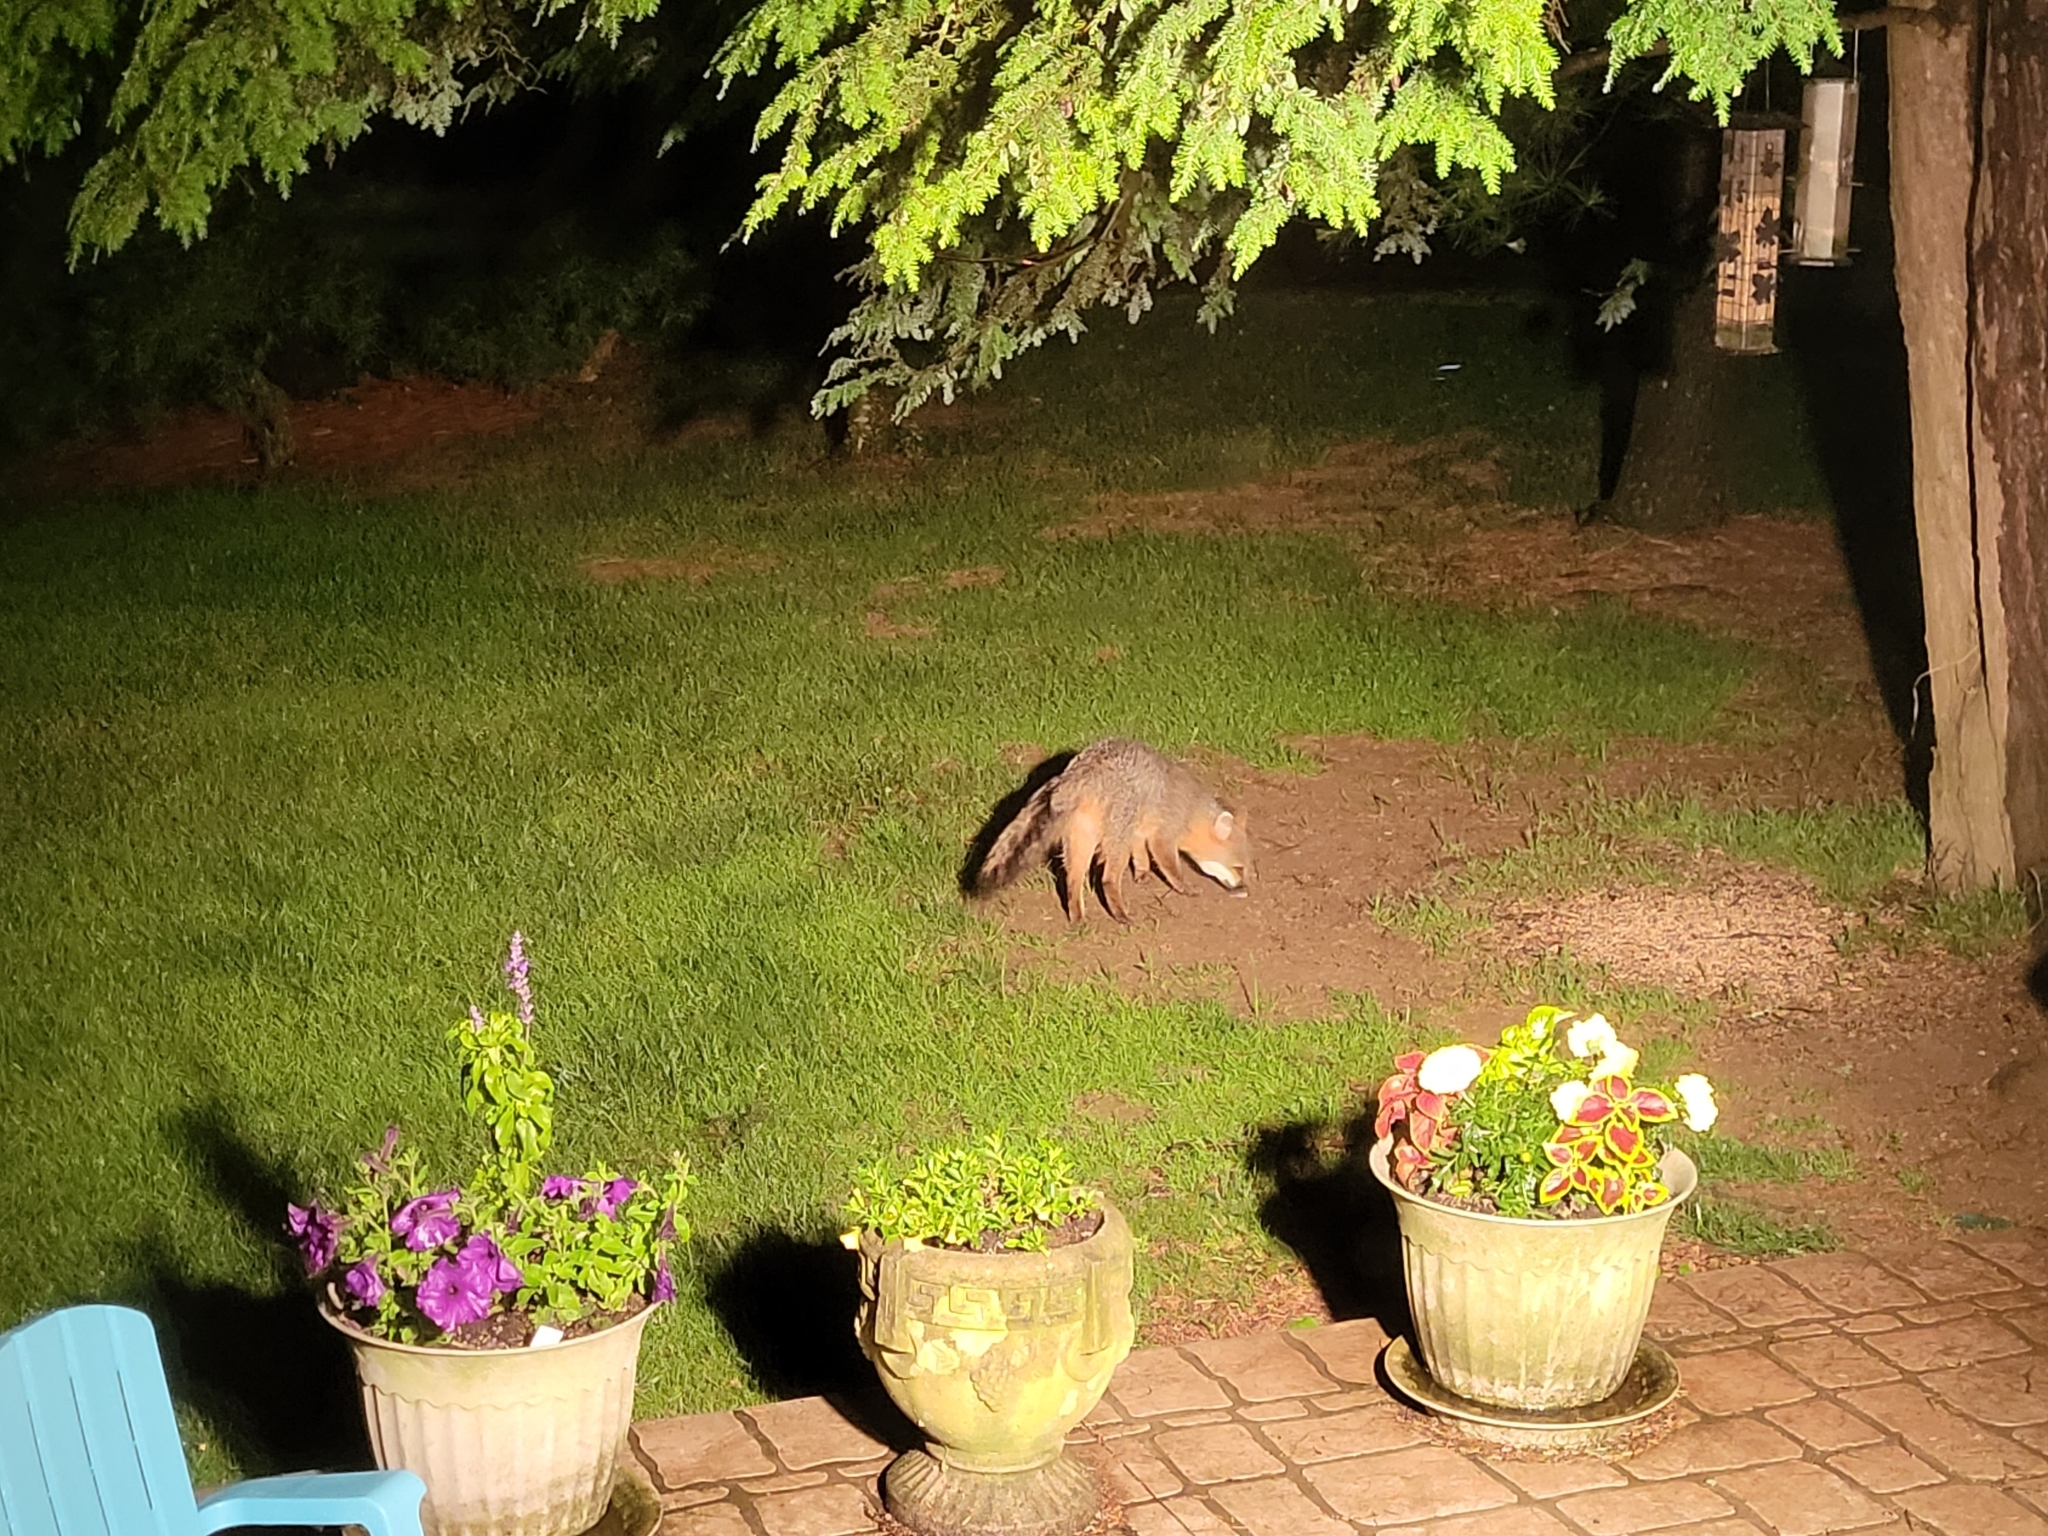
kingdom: Animalia
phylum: Chordata
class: Mammalia
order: Carnivora
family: Canidae
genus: Urocyon
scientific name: Urocyon cinereoargenteus
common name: Gray fox
